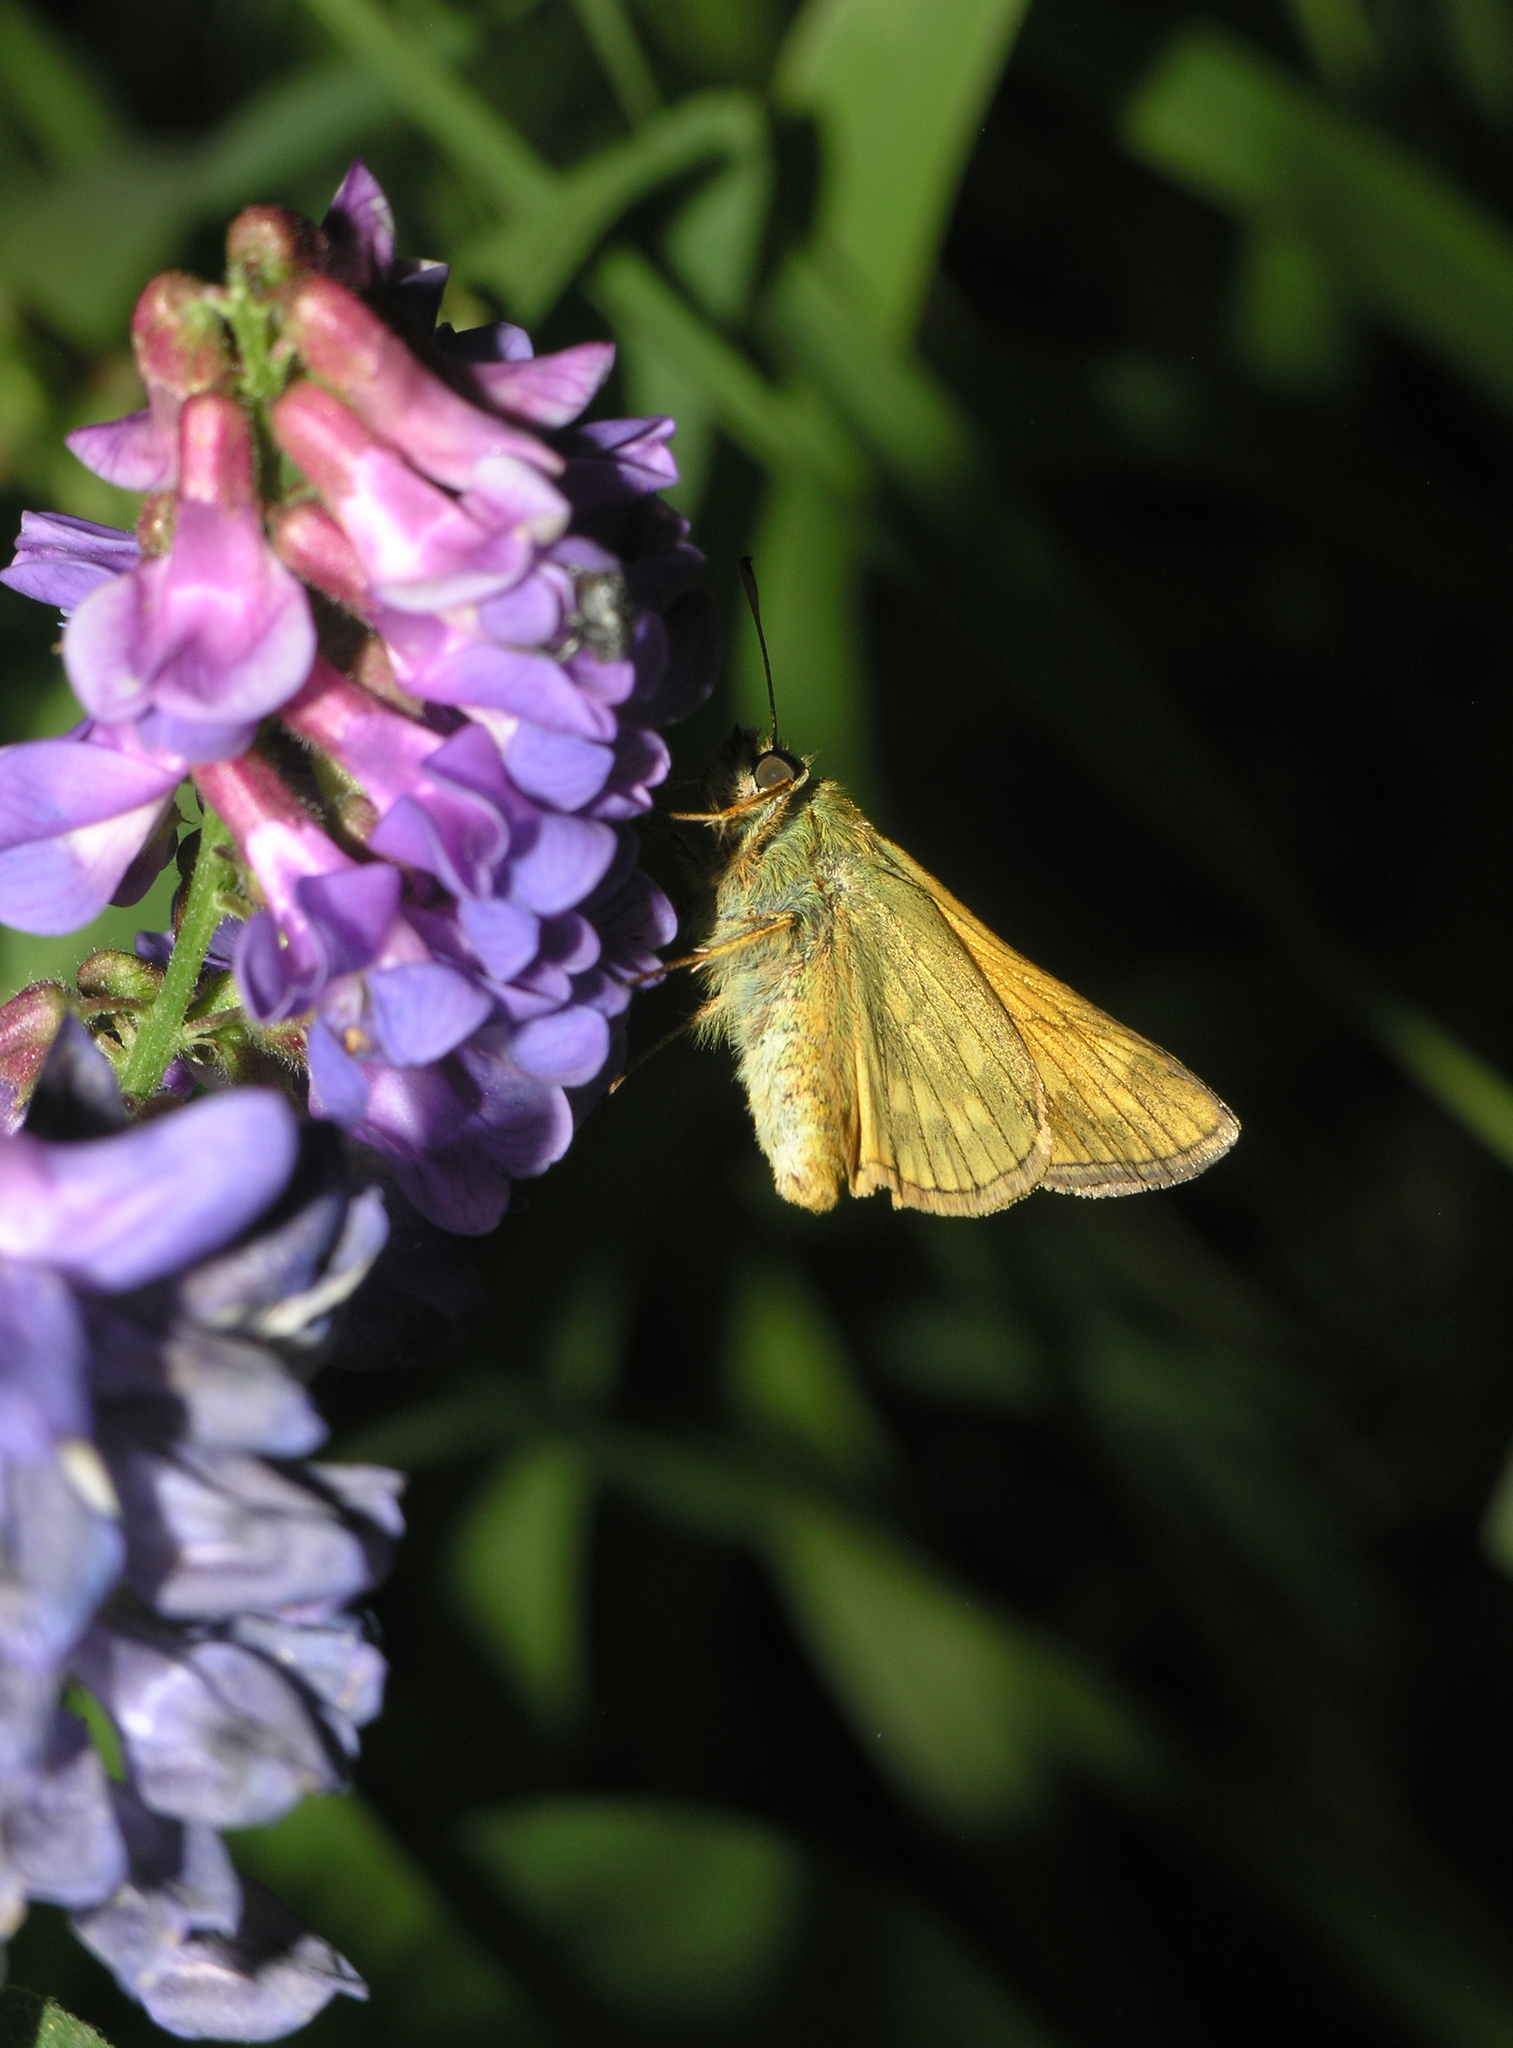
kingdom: Animalia
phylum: Arthropoda
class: Insecta
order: Lepidoptera
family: Hesperiidae
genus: Ochlodes
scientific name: Ochlodes venata
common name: Large skipper
